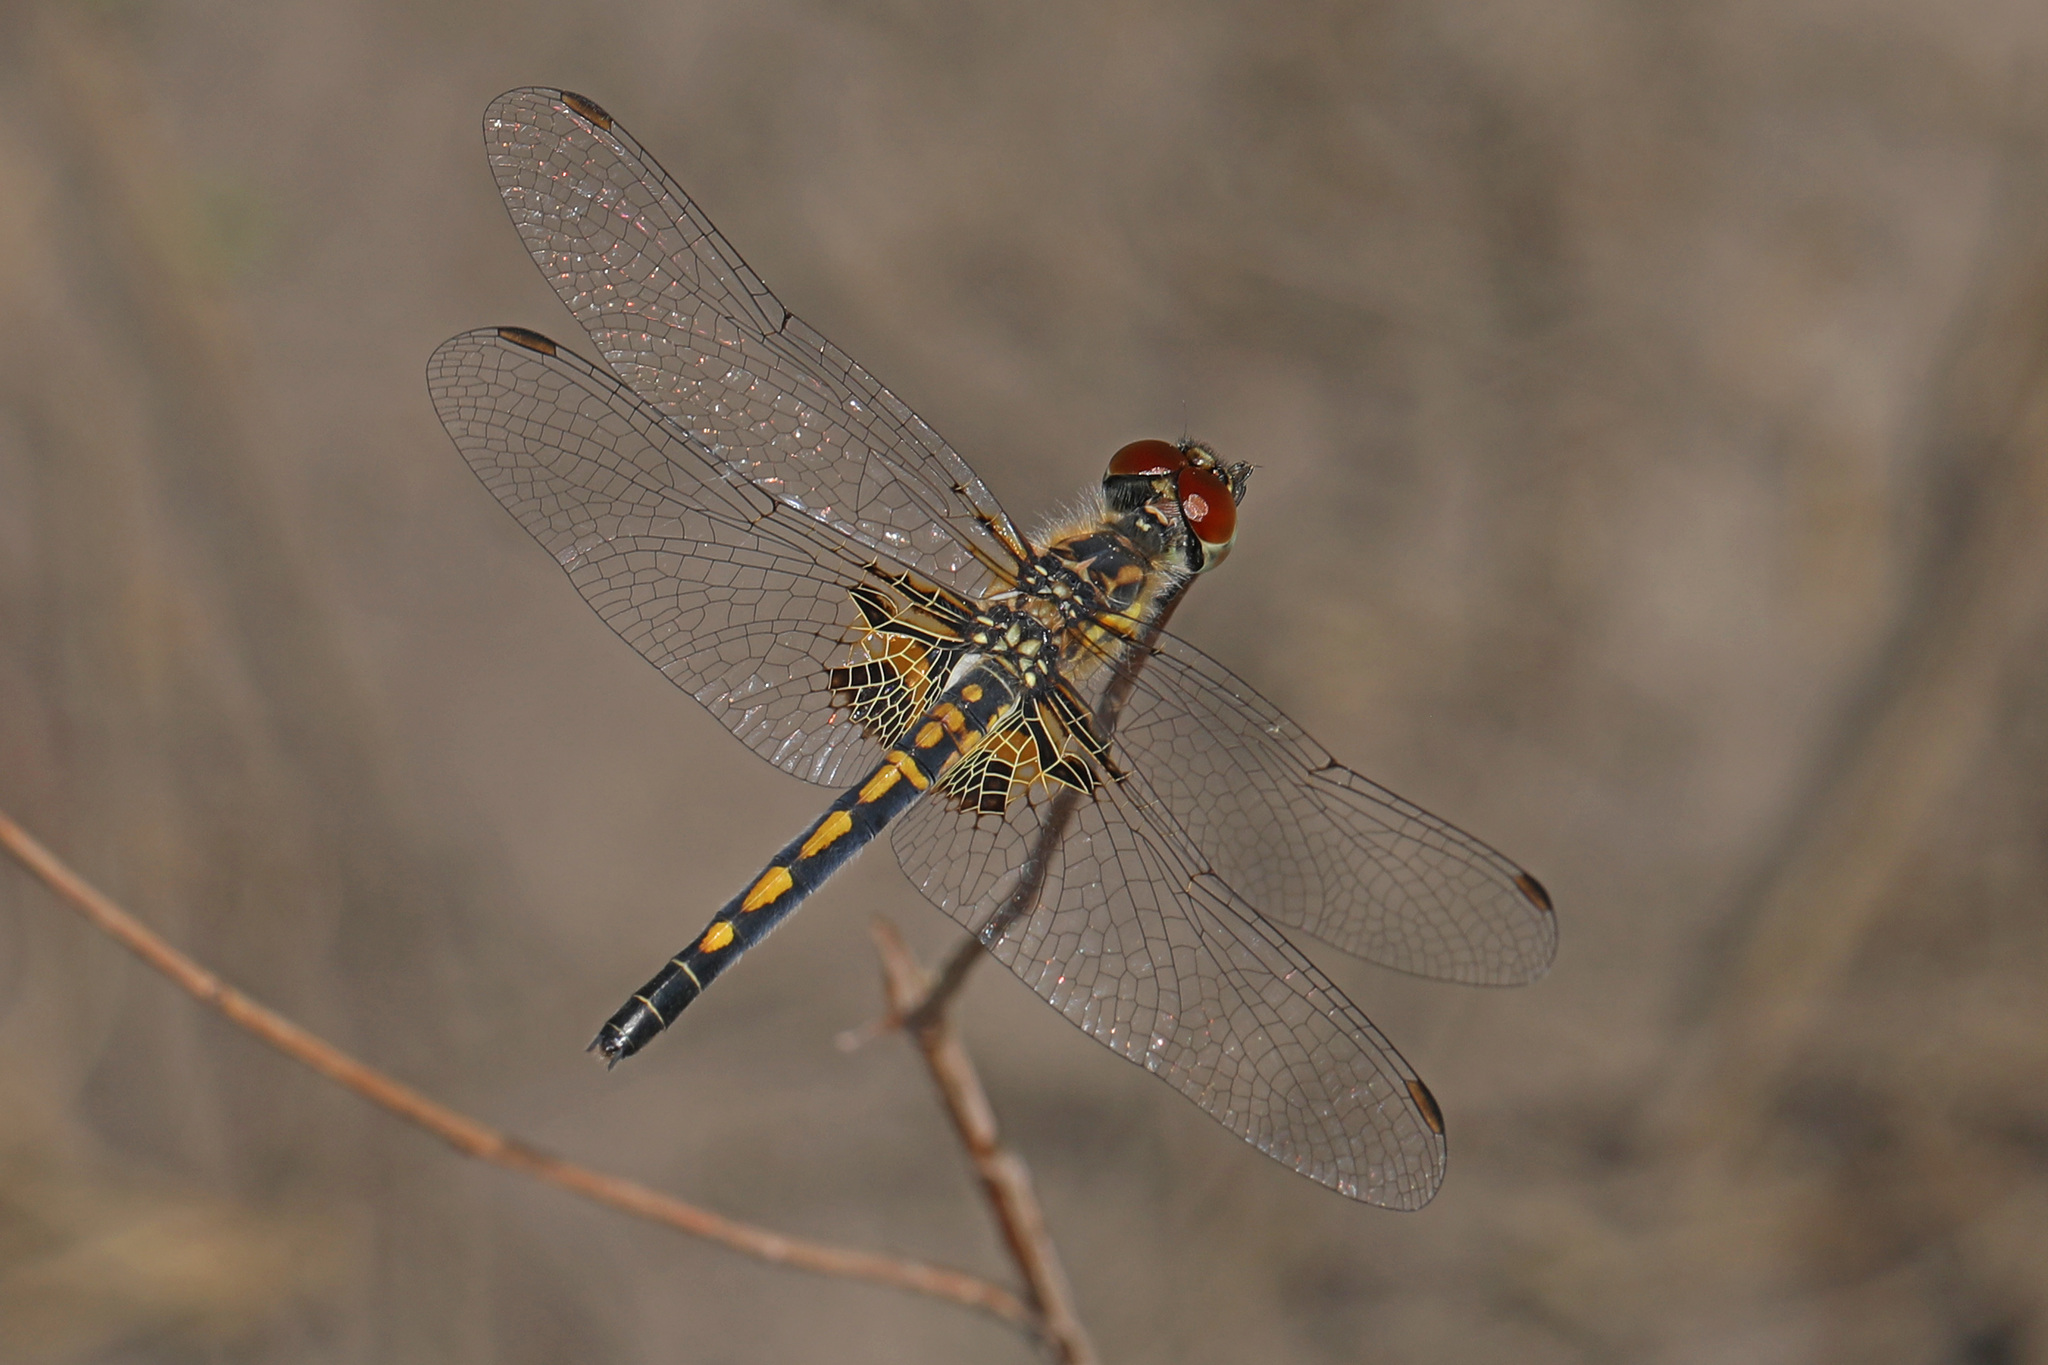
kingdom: Animalia
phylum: Arthropoda
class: Insecta
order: Odonata
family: Libellulidae
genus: Celithemis
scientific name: Celithemis ornata
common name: Ornate pennant
